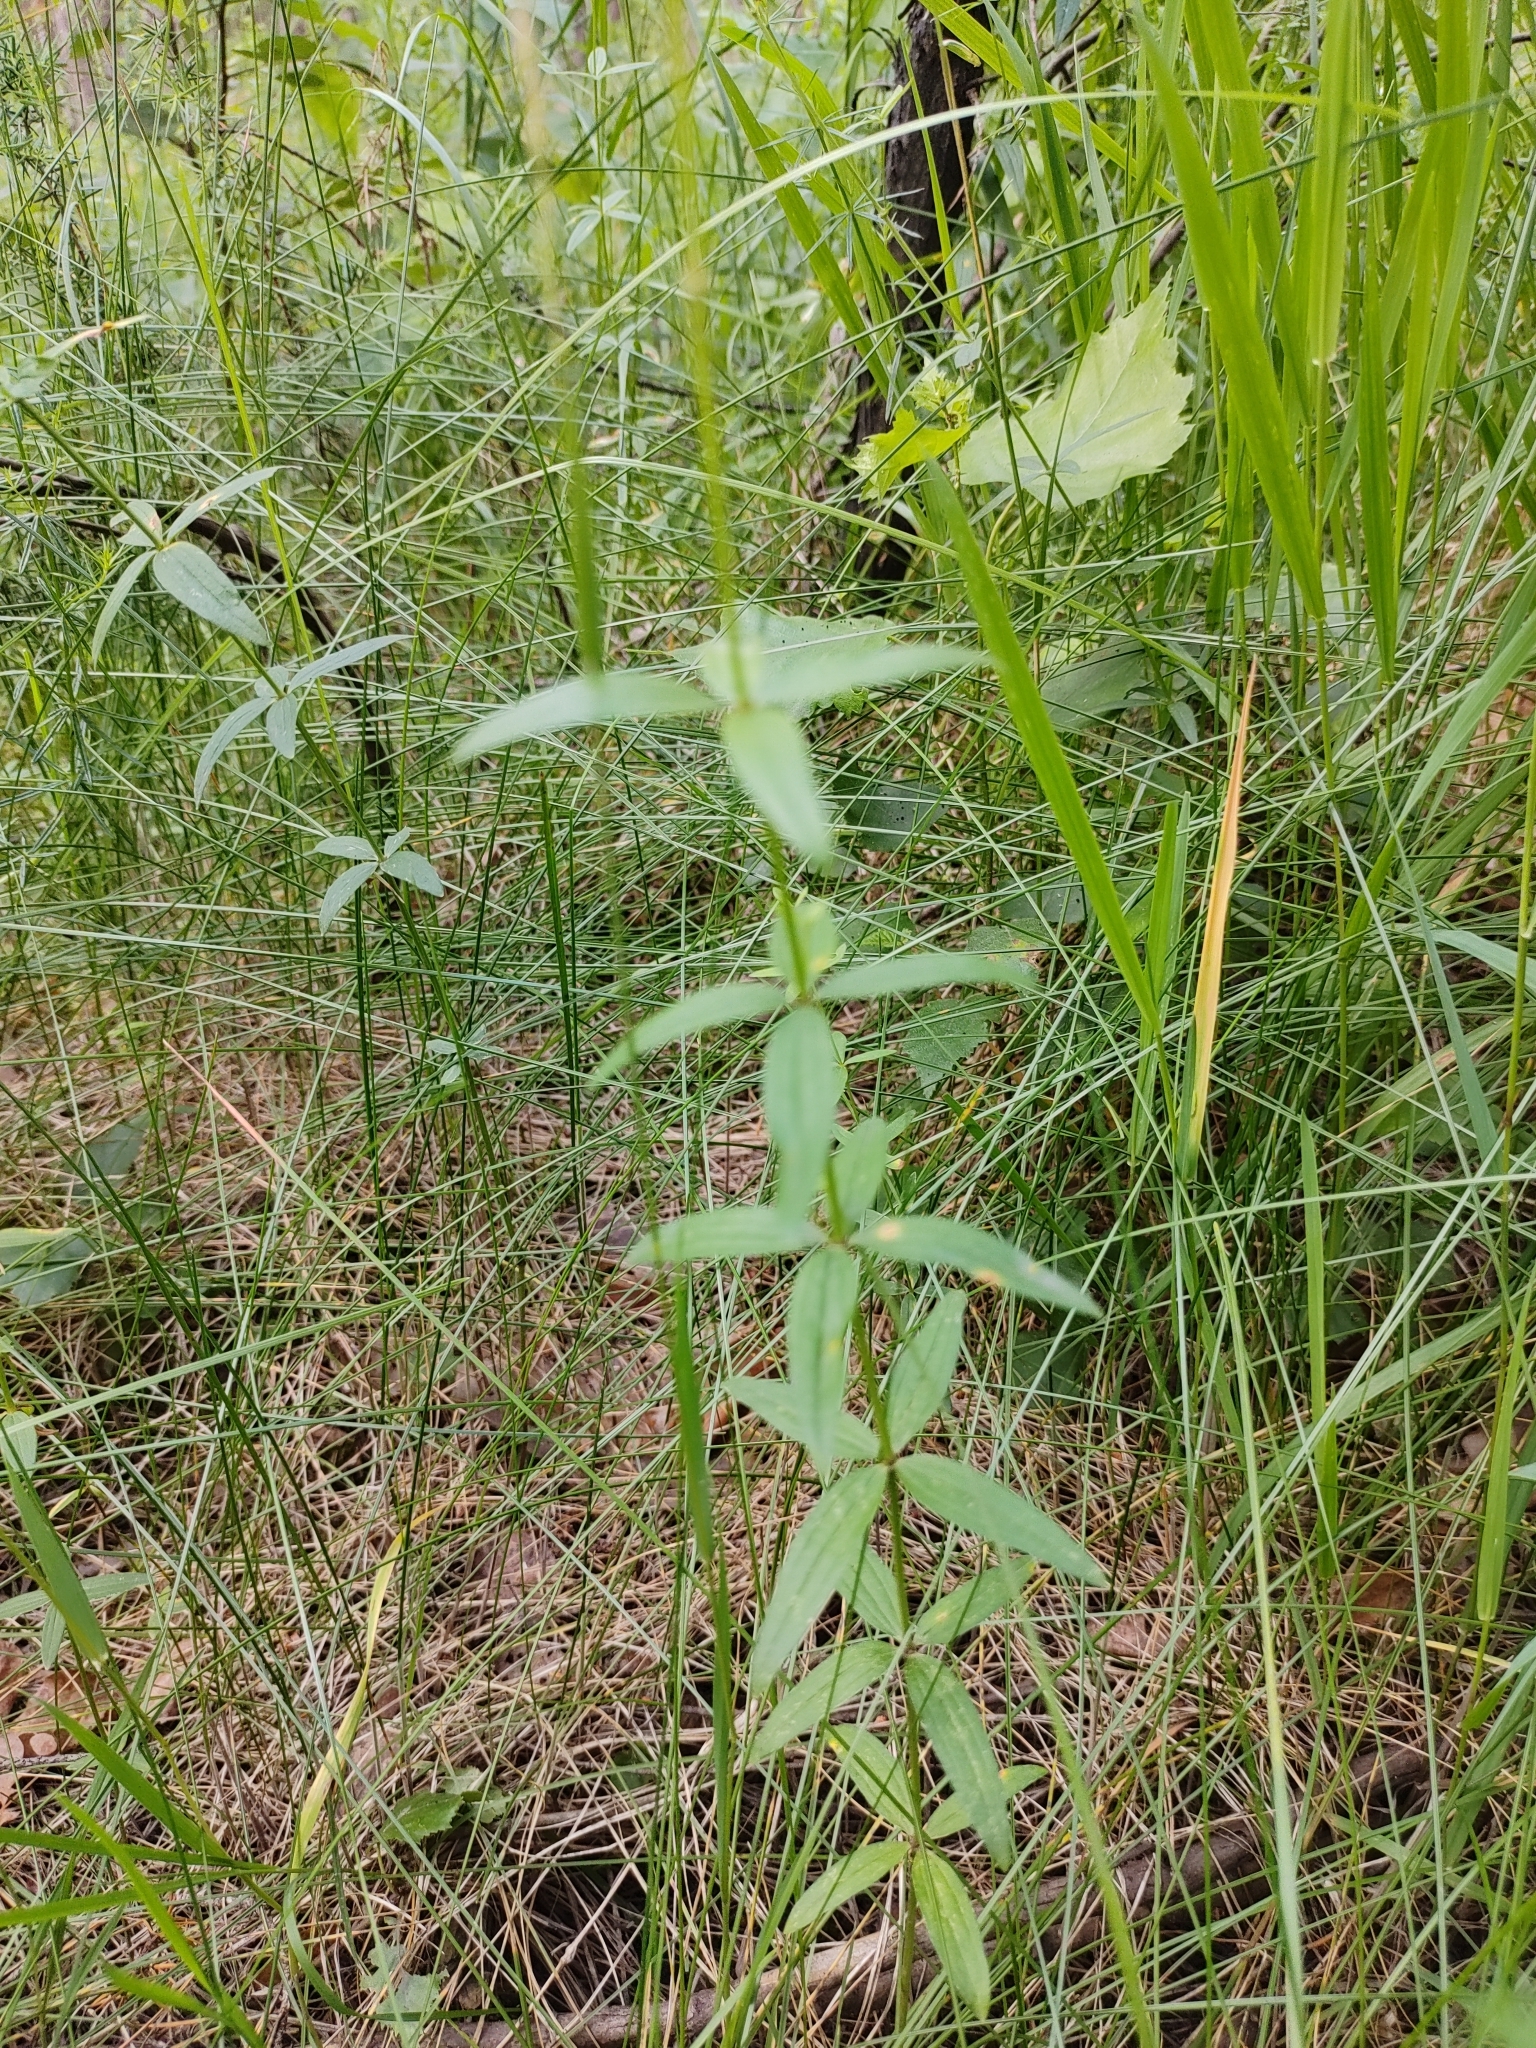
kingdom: Plantae
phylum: Tracheophyta
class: Magnoliopsida
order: Gentianales
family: Rubiaceae
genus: Galium
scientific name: Galium boreale
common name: Northern bedstraw
